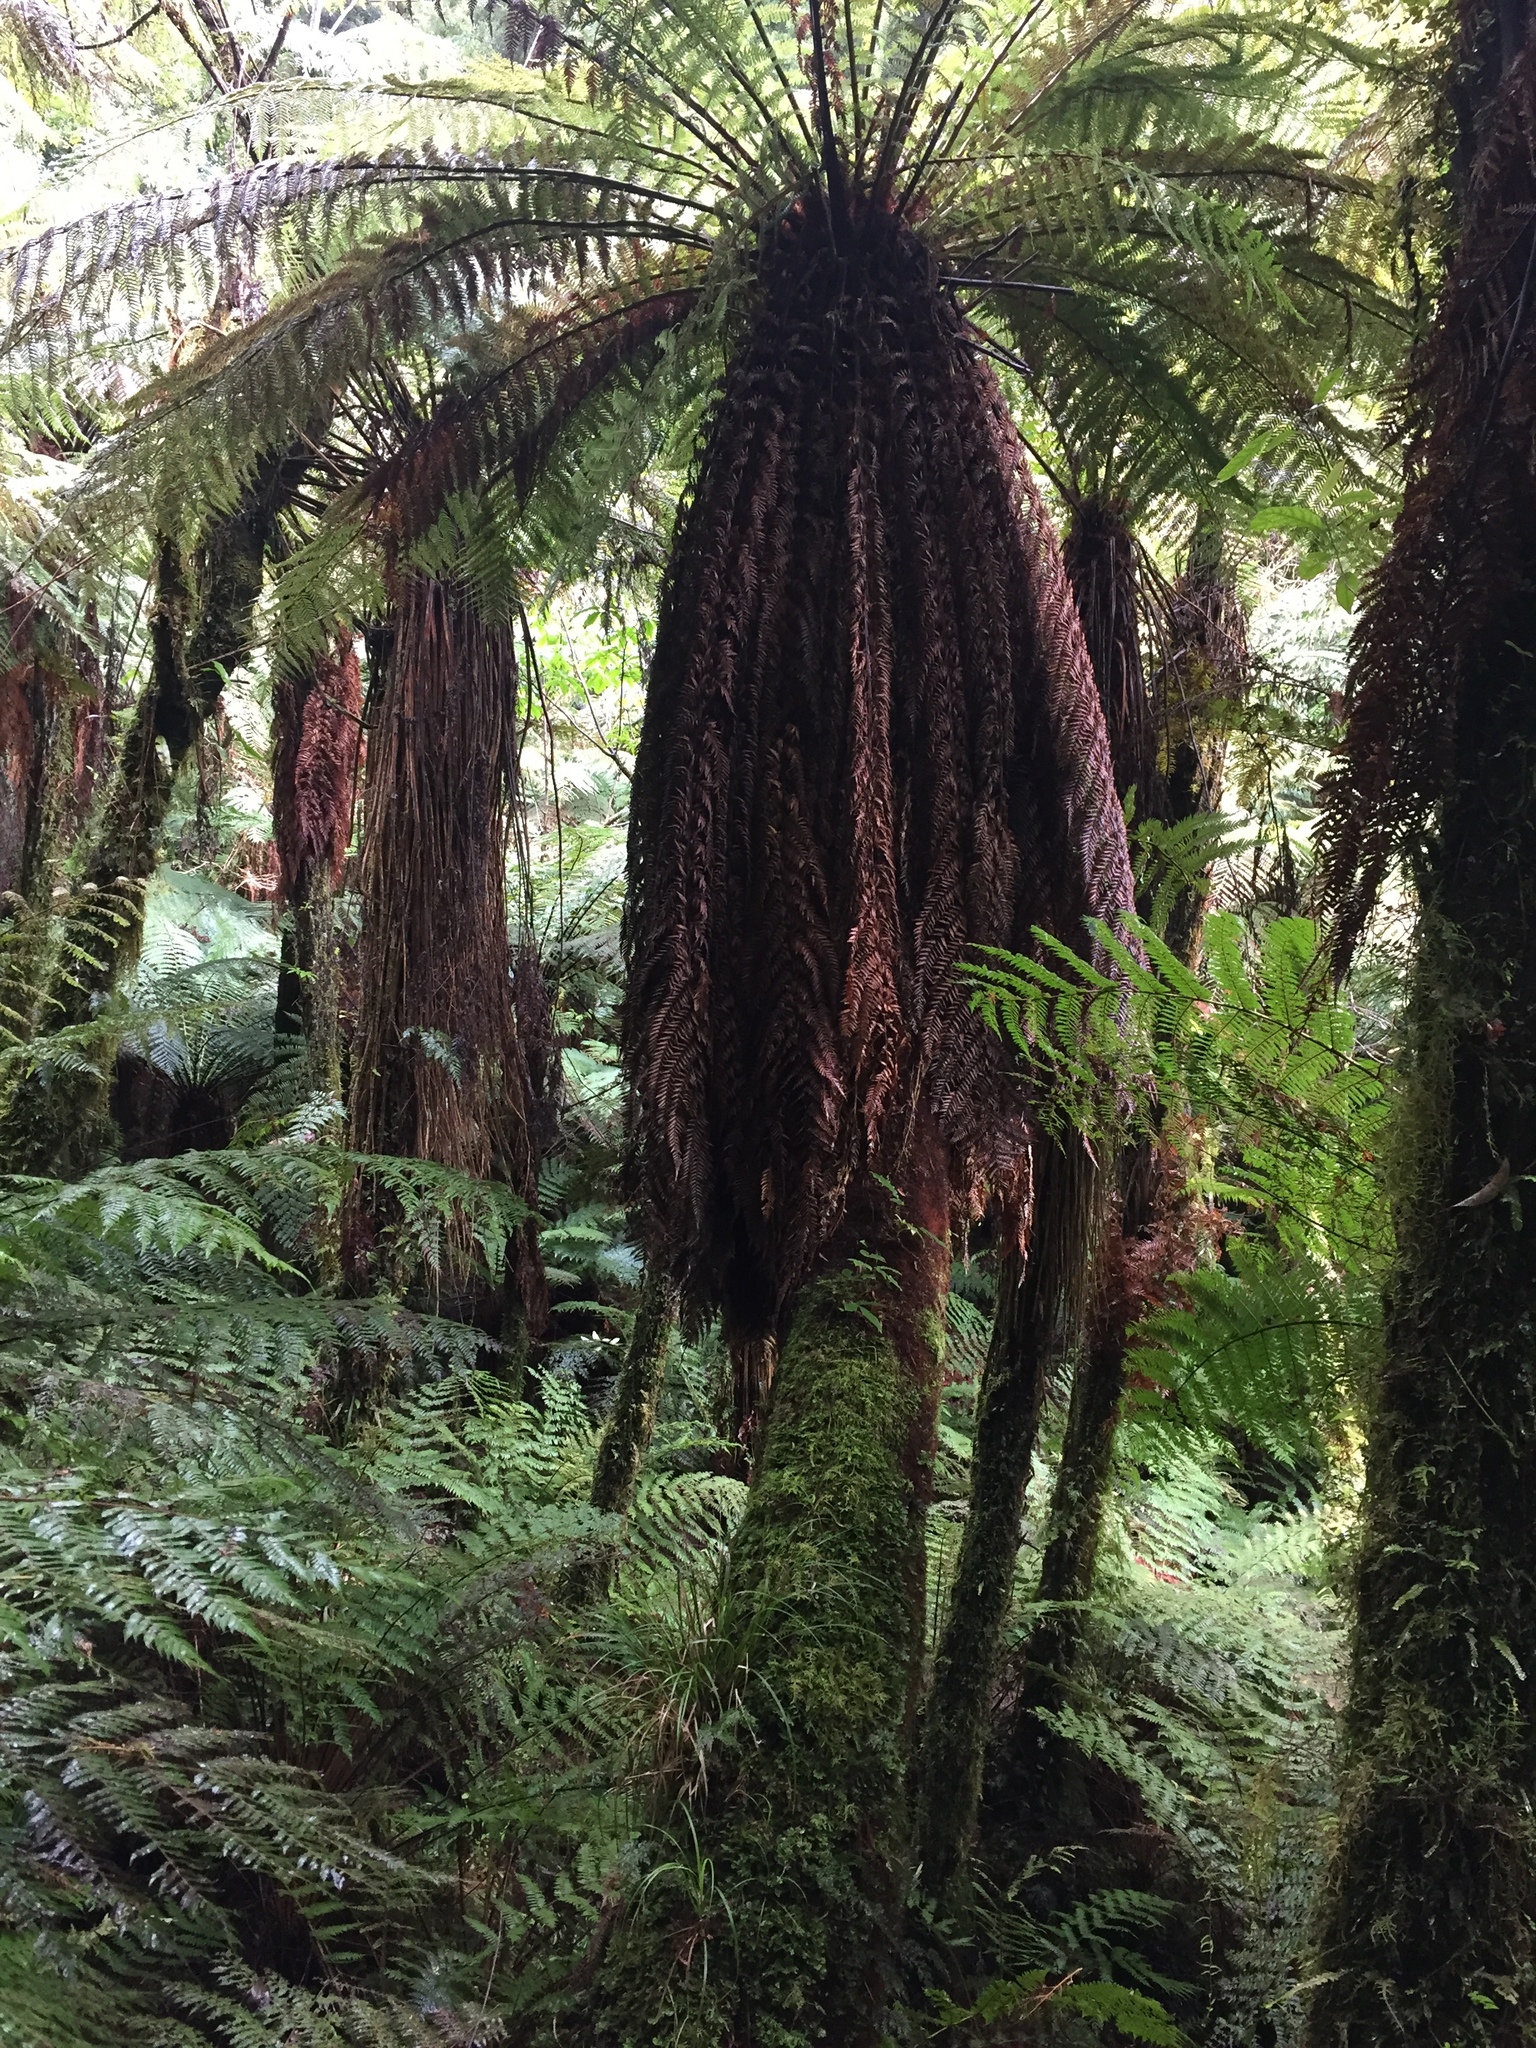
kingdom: Plantae
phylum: Tracheophyta
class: Polypodiopsida
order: Cyatheales
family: Dicksoniaceae
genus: Dicksonia
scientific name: Dicksonia fibrosa
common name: Golden tree fern
